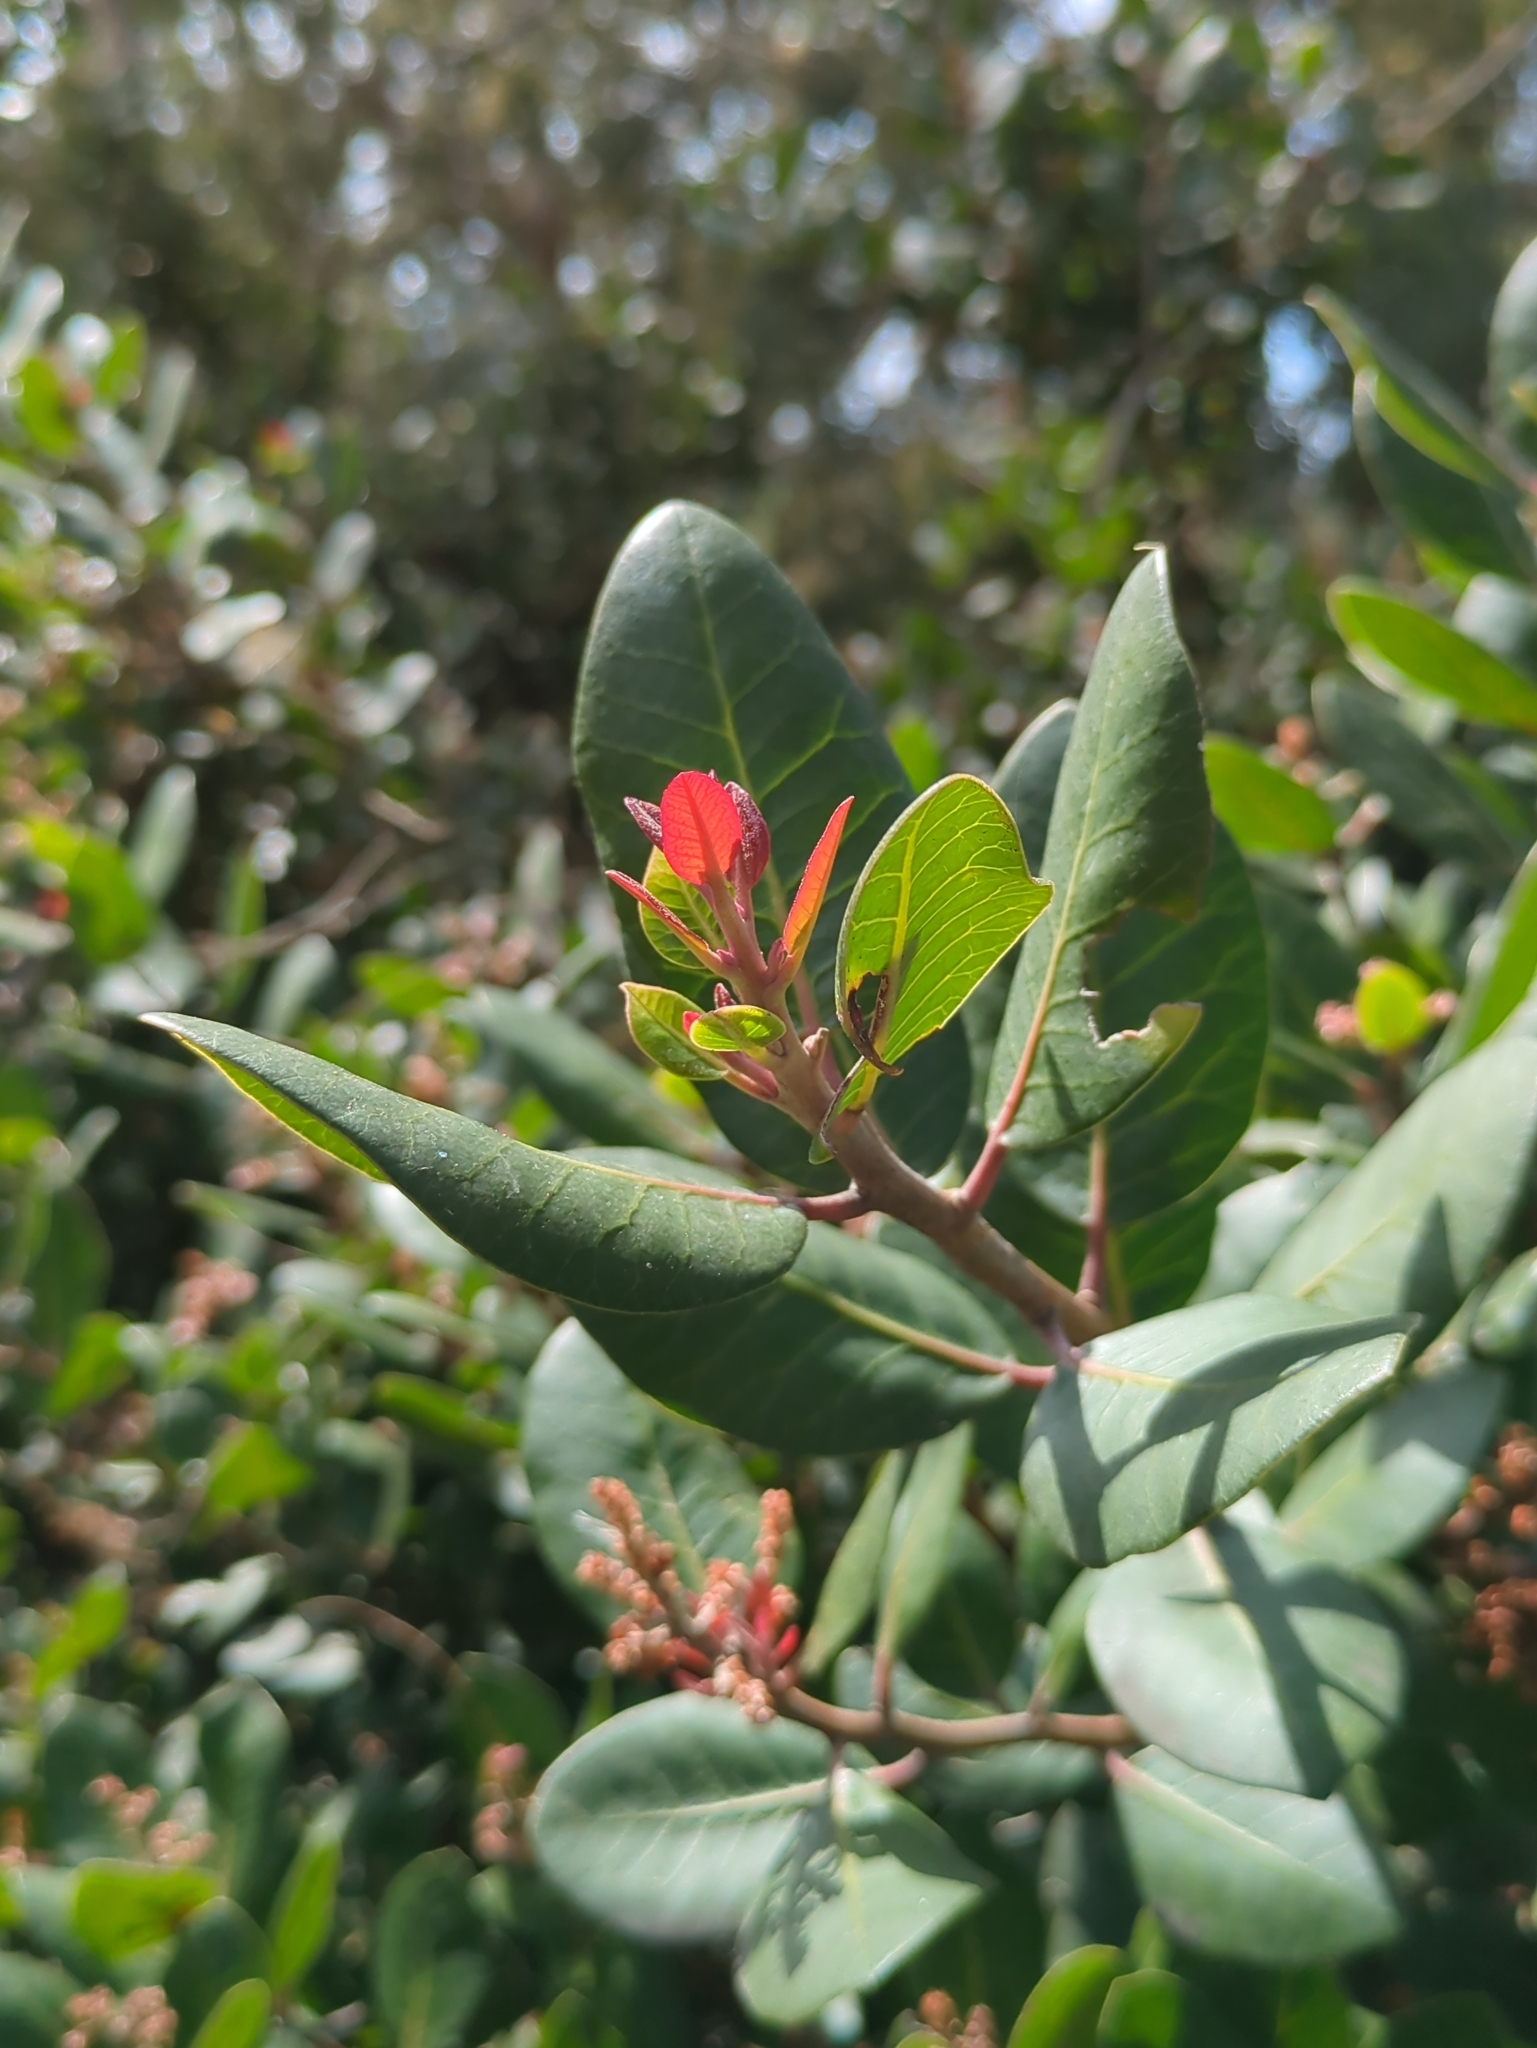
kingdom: Plantae
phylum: Tracheophyta
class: Magnoliopsida
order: Sapindales
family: Anacardiaceae
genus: Rhus
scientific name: Rhus integrifolia
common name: Lemonade sumac
